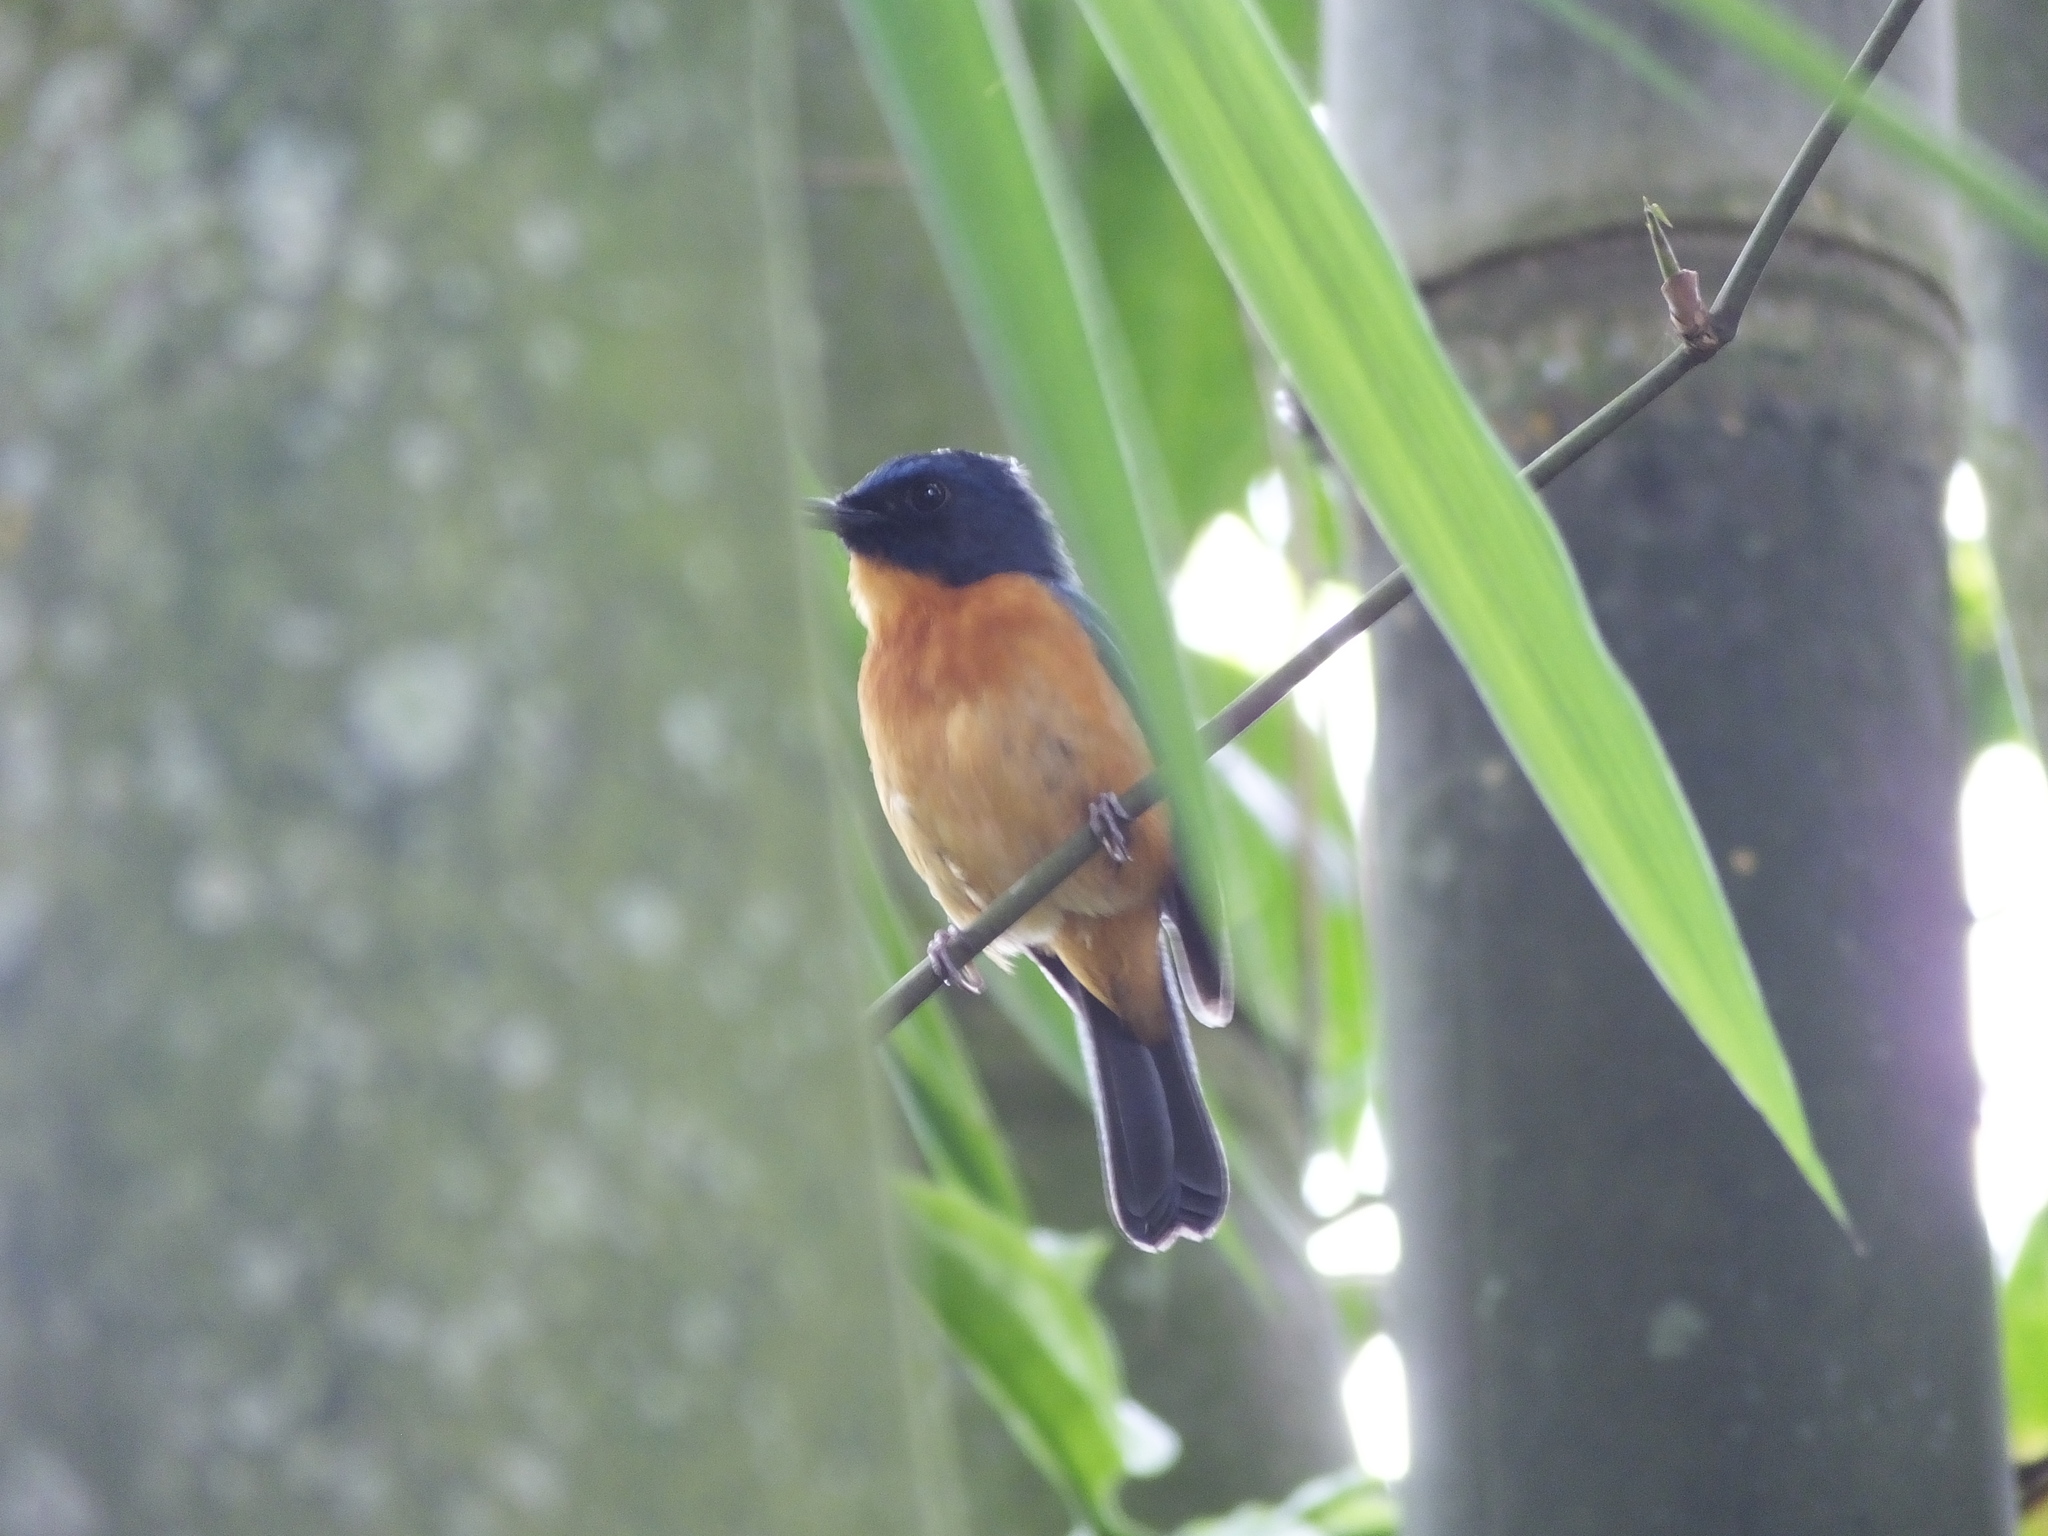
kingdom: Animalia
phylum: Chordata
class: Aves
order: Passeriformes
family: Muscicapidae
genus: Cyornis
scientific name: Cyornis omissus
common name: Sulawesi blue flycatcher
